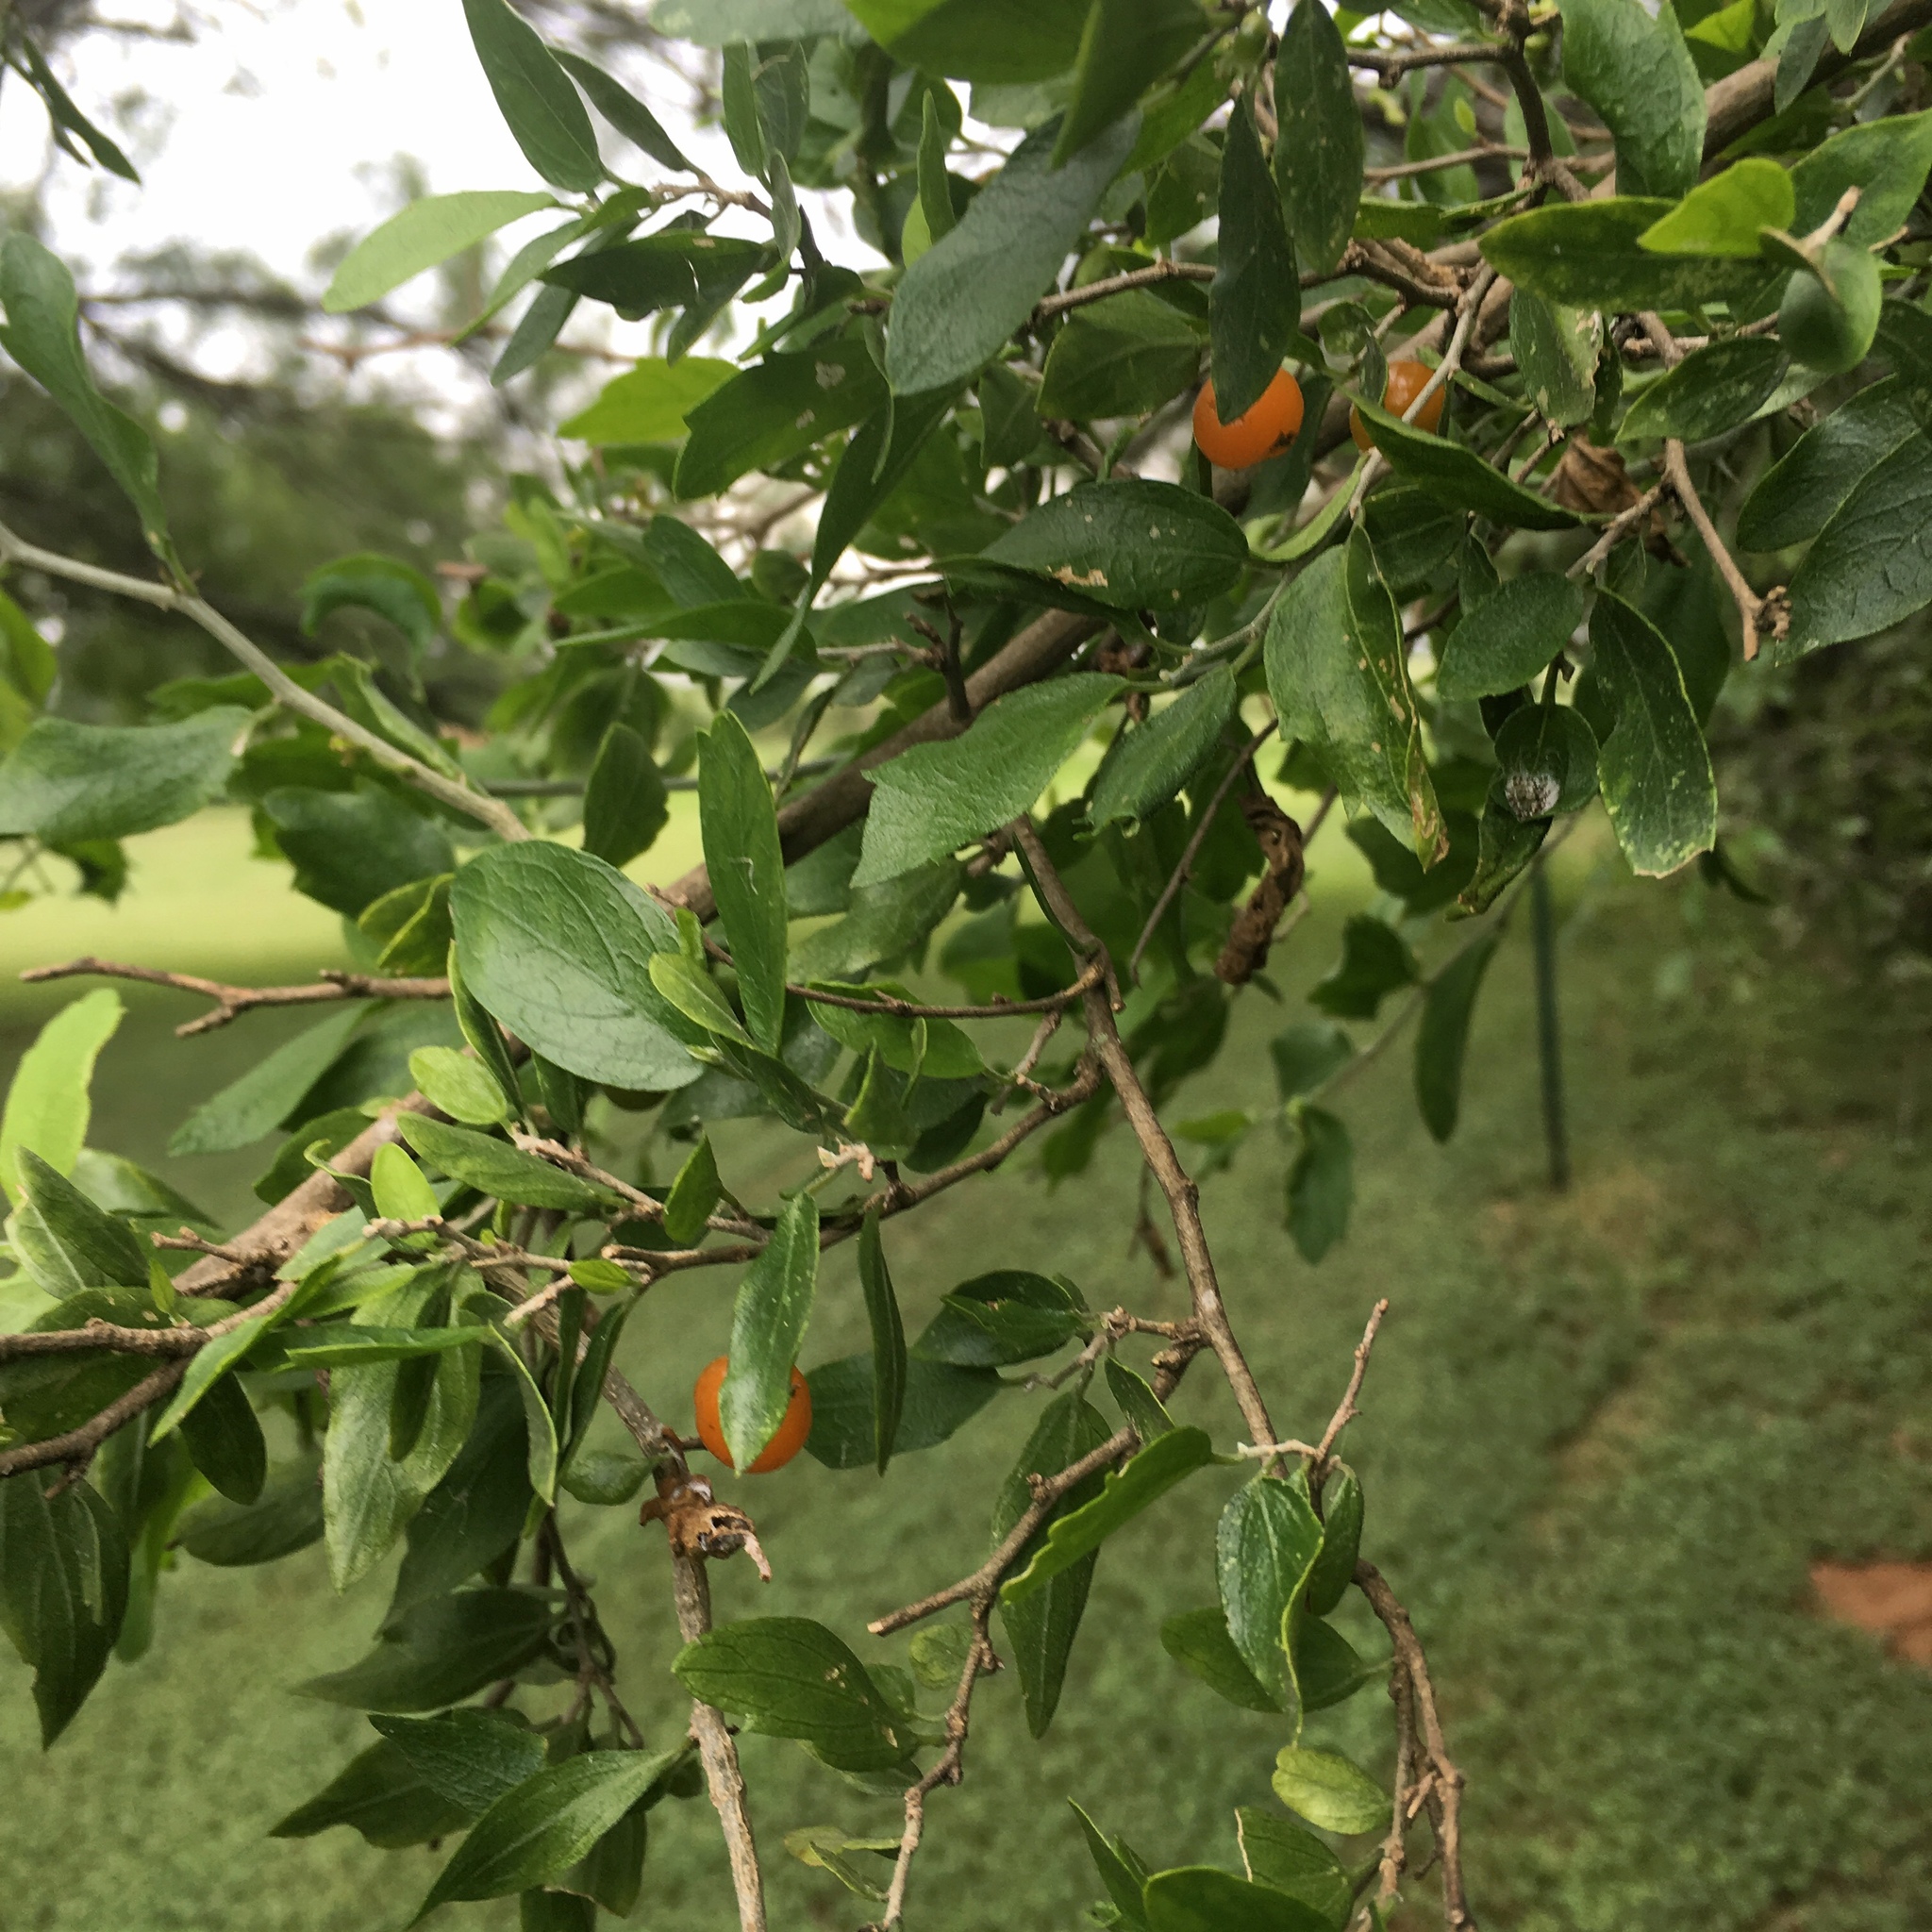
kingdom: Plantae
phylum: Tracheophyta
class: Magnoliopsida
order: Rosales
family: Cannabaceae
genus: Celtis
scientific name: Celtis pallida
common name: Desert hackberry
